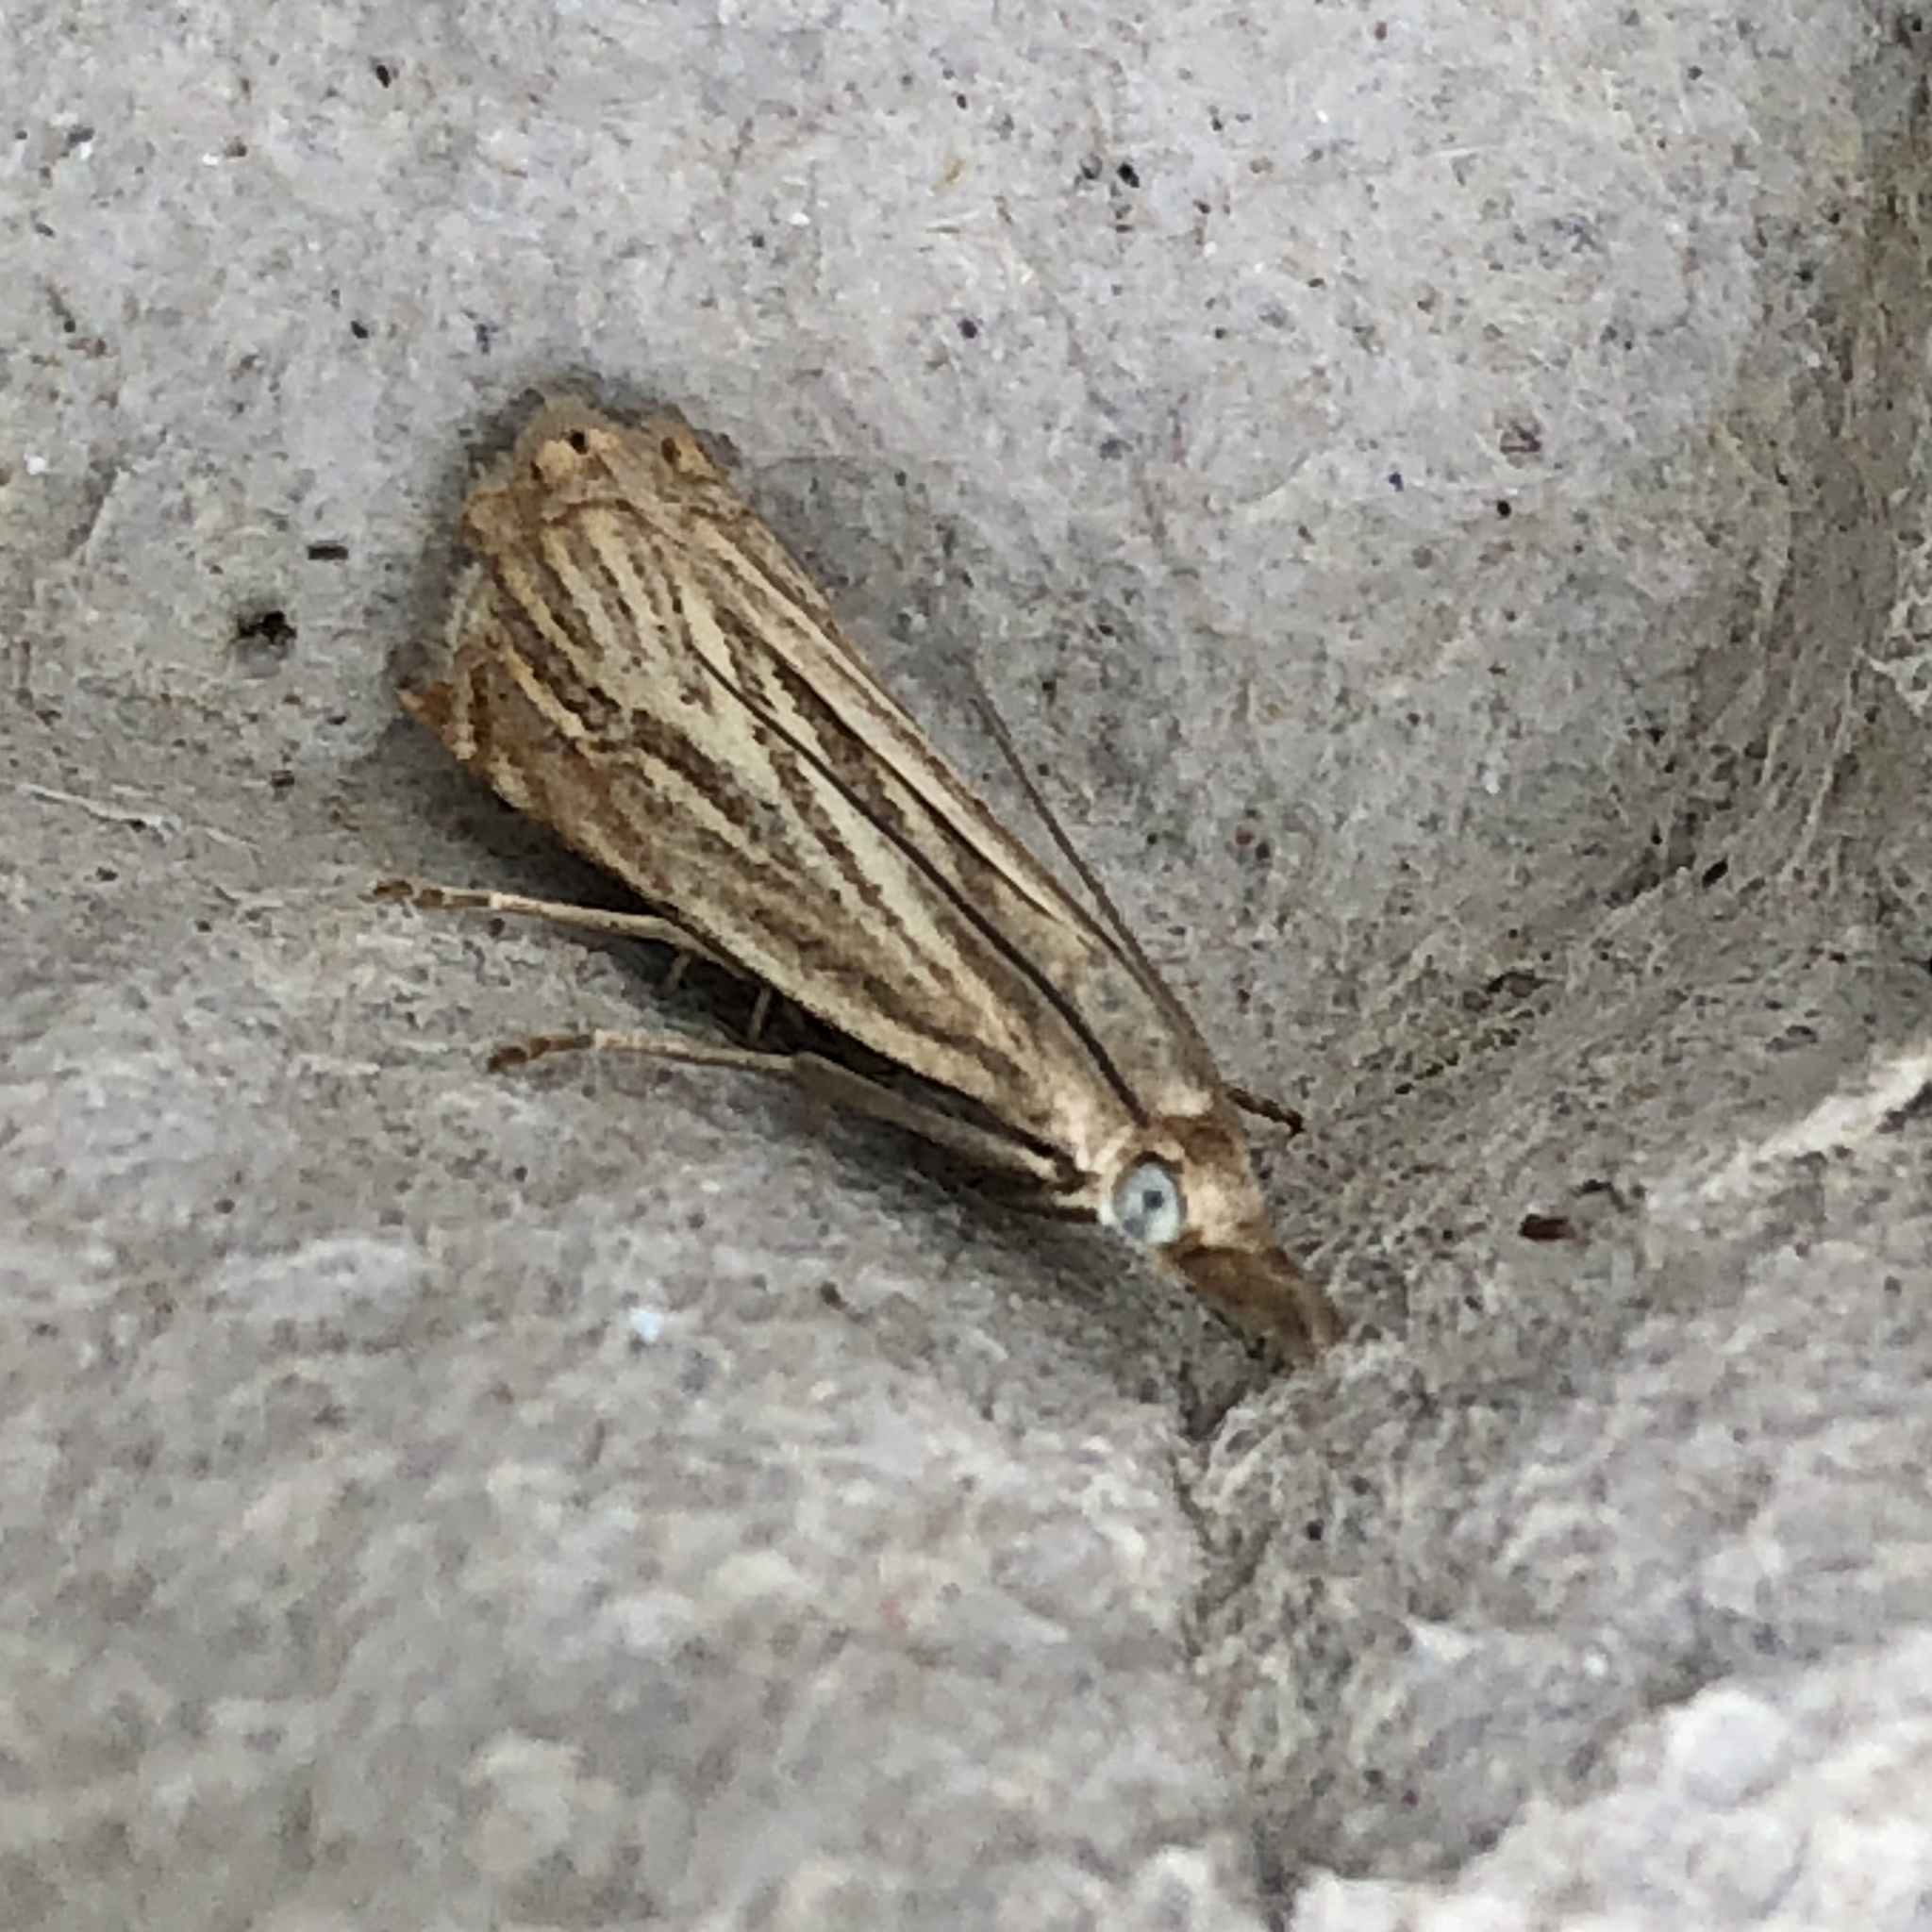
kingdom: Animalia
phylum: Arthropoda
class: Insecta
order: Lepidoptera
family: Crambidae
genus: Chrysoteuchia
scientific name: Chrysoteuchia culmella
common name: Garden grass-veneer
